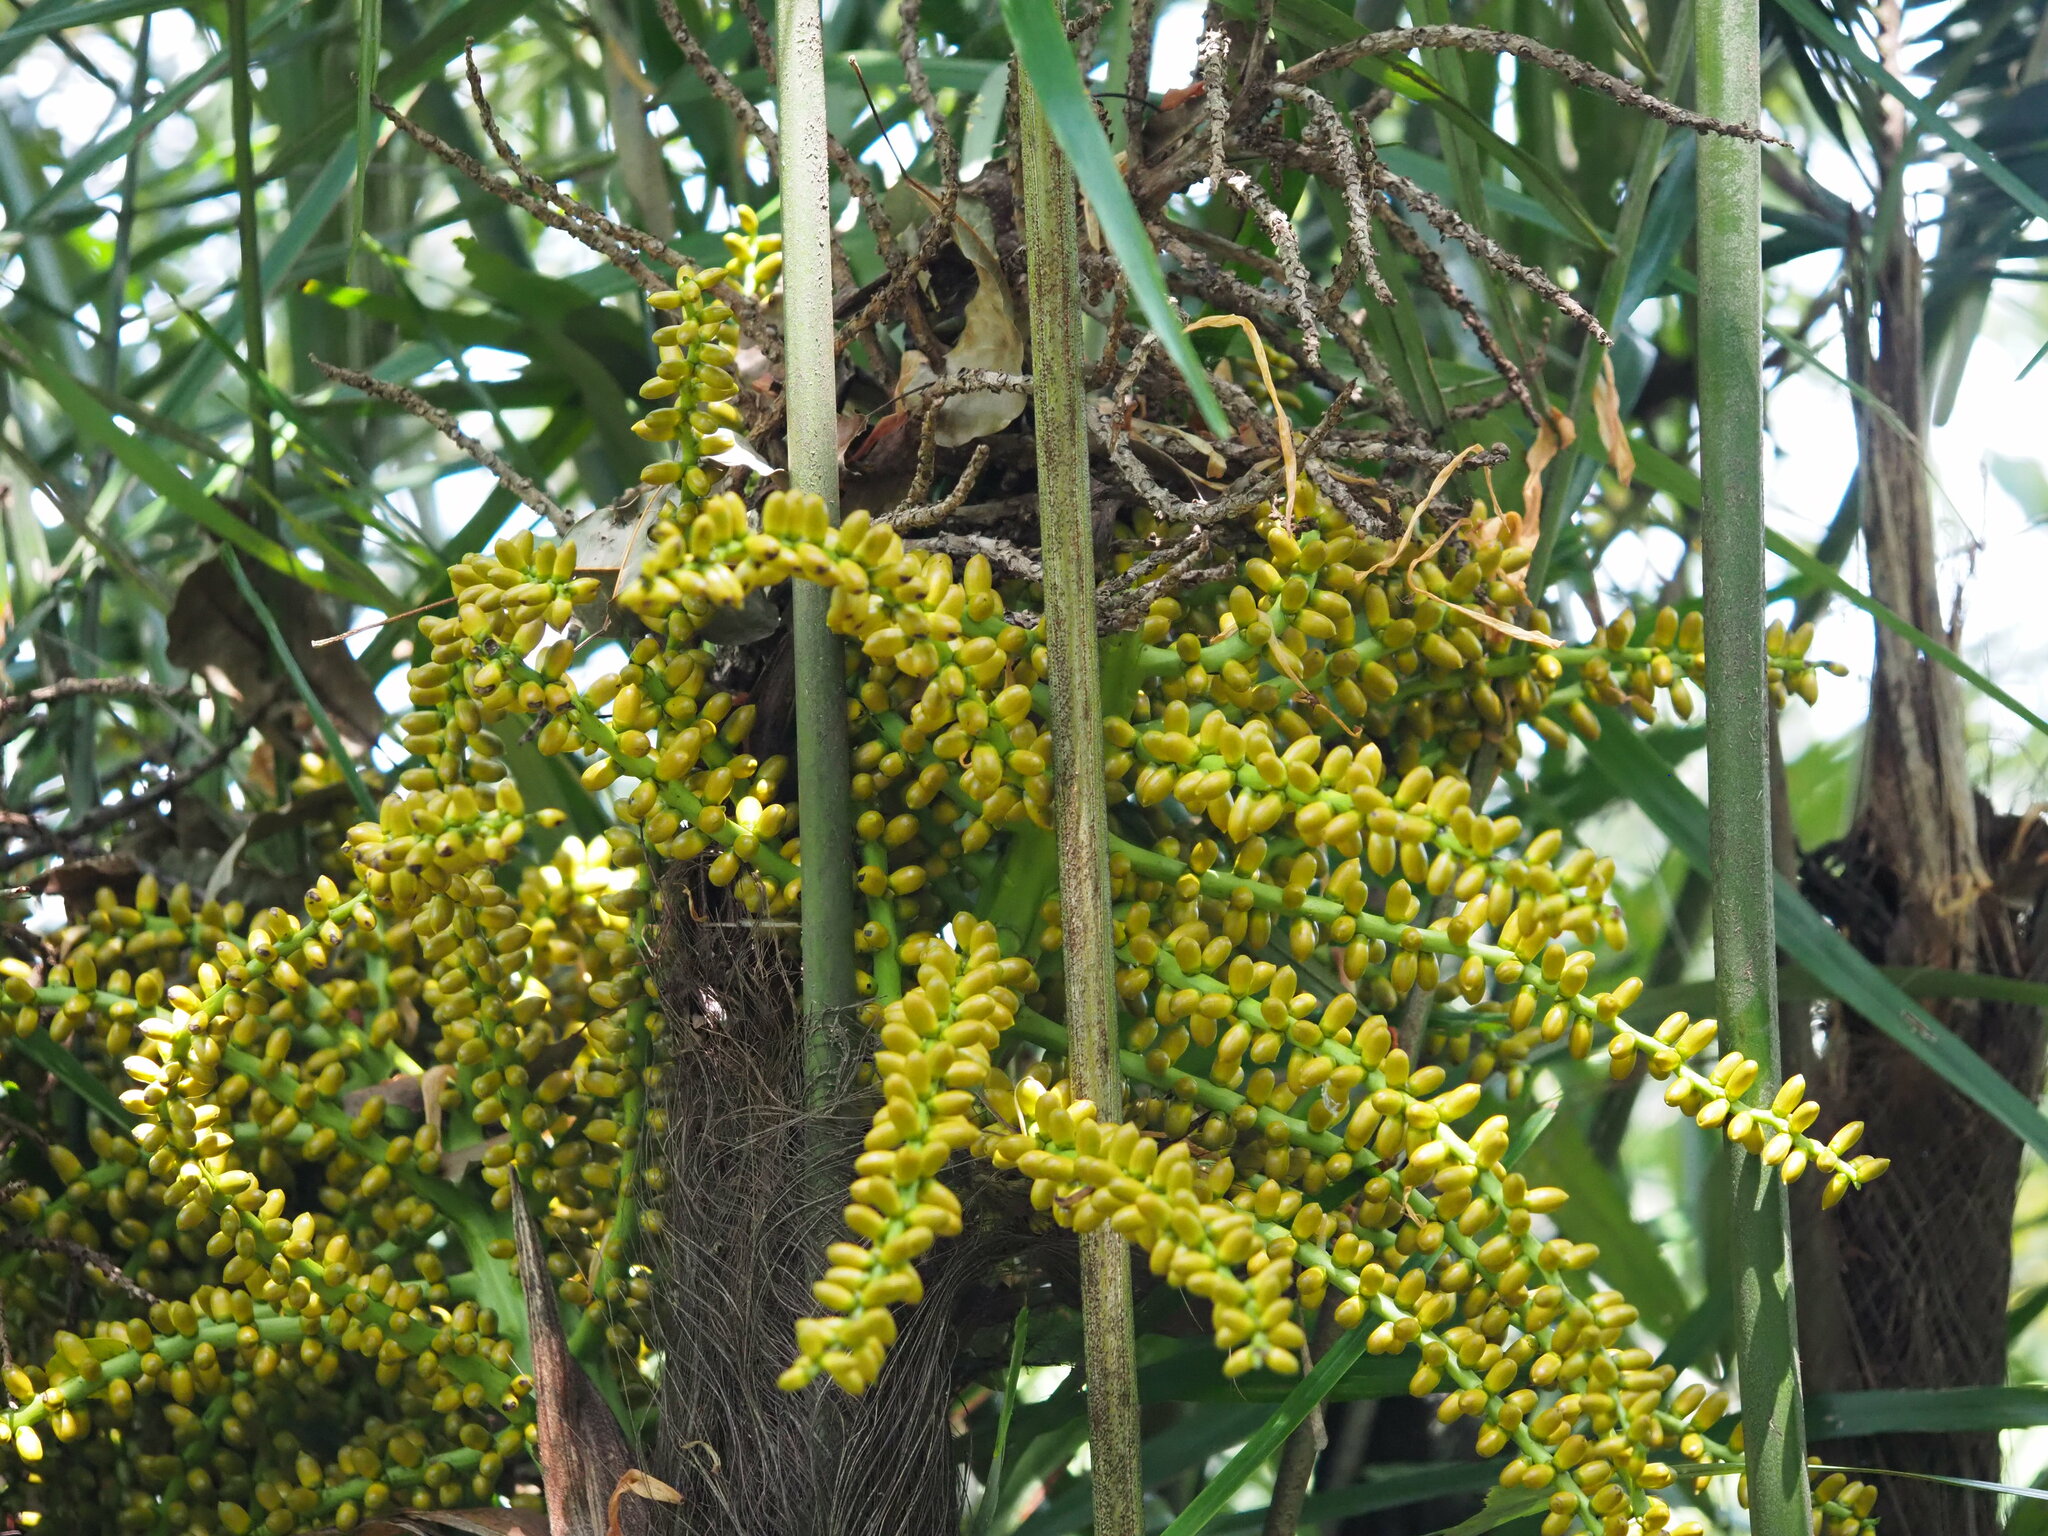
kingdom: Plantae
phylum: Tracheophyta
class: Liliopsida
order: Arecales
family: Arecaceae
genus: Arenga
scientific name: Arenga engleri
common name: Formosan sugar palm
